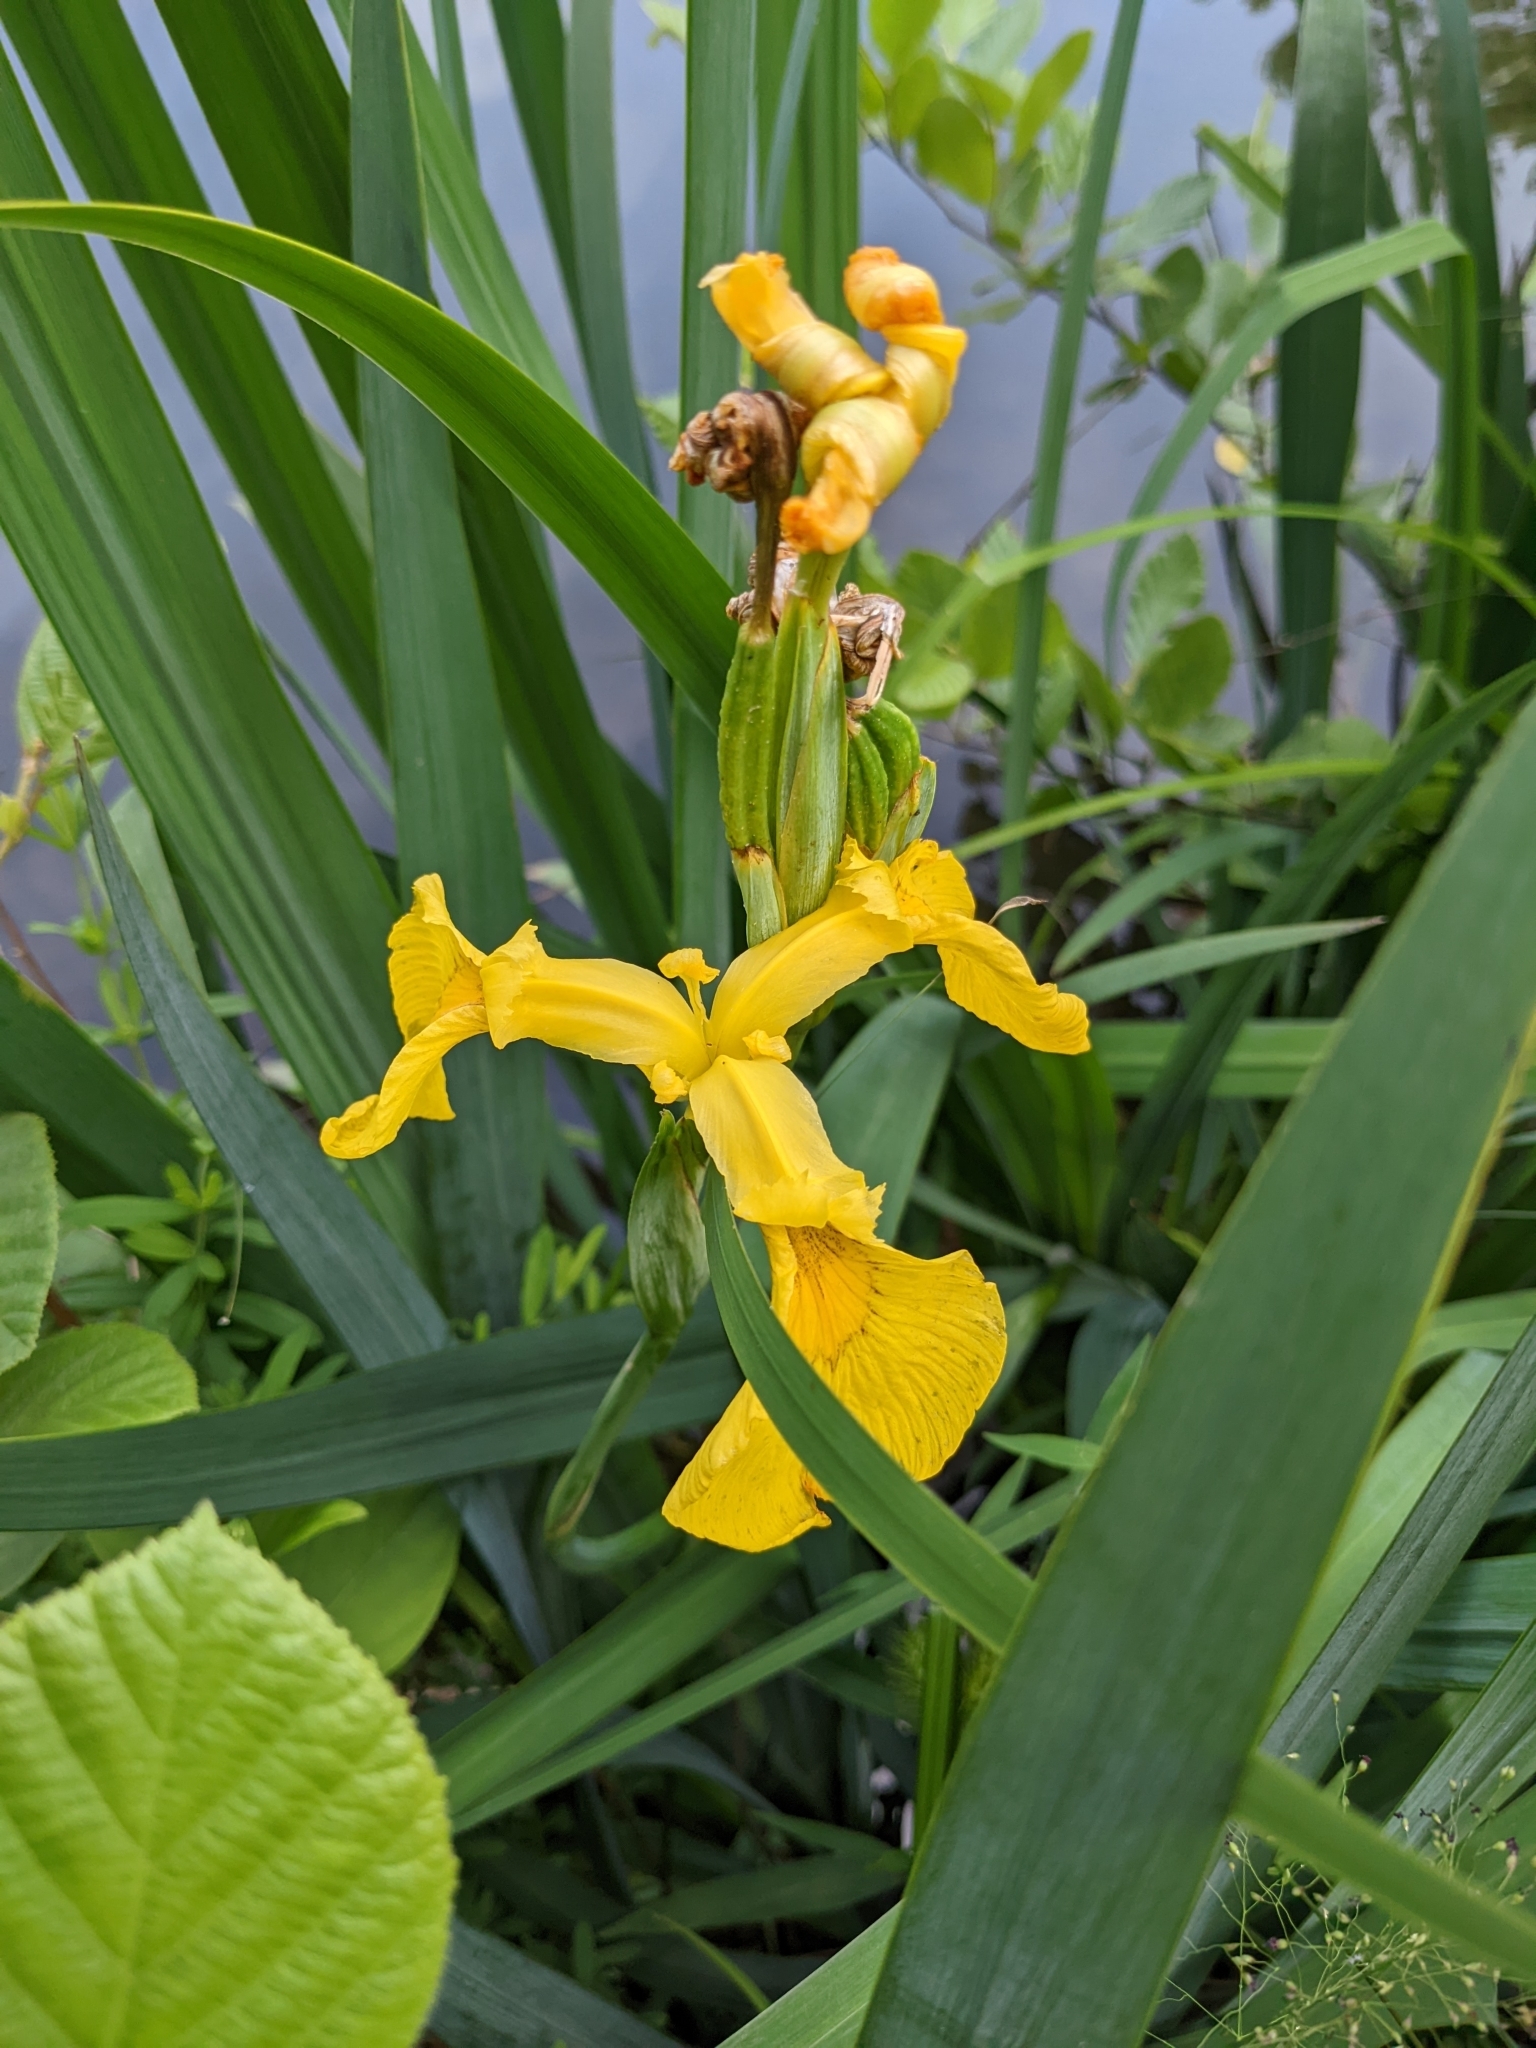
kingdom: Plantae
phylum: Tracheophyta
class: Liliopsida
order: Asparagales
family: Iridaceae
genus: Iris
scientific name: Iris pseudacorus
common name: Yellow flag
